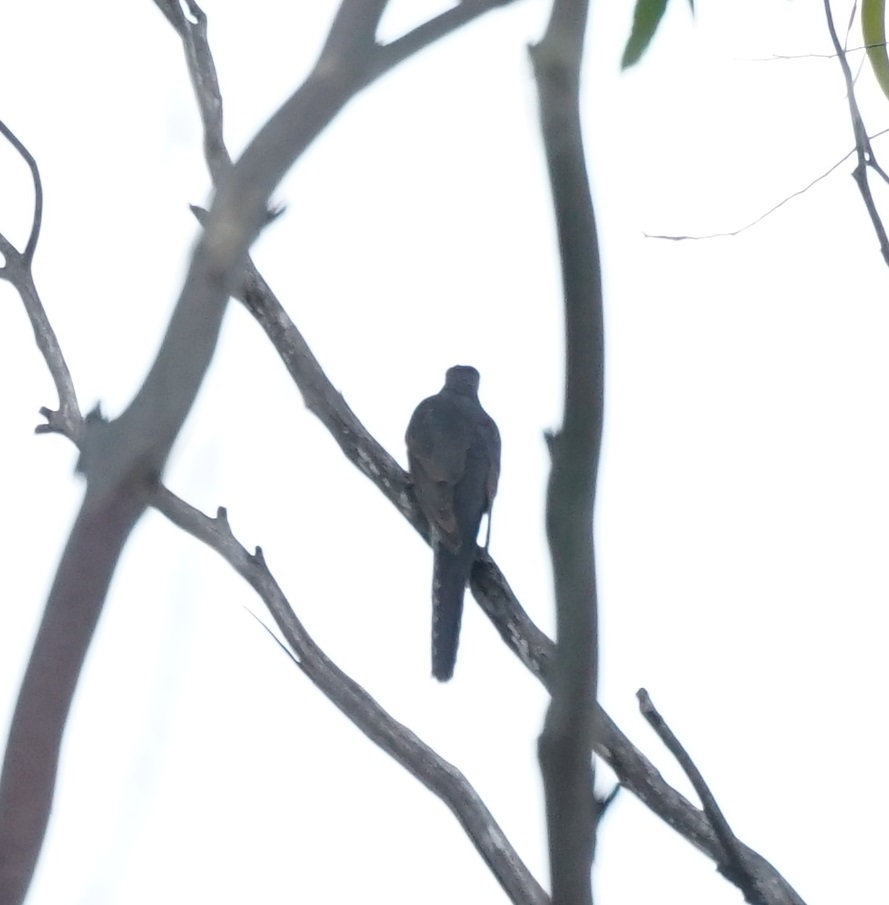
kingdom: Animalia
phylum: Chordata
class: Aves
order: Cuculiformes
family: Cuculidae
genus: Cacomantis
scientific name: Cacomantis flabelliformis
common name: Fan-tailed cuckoo
